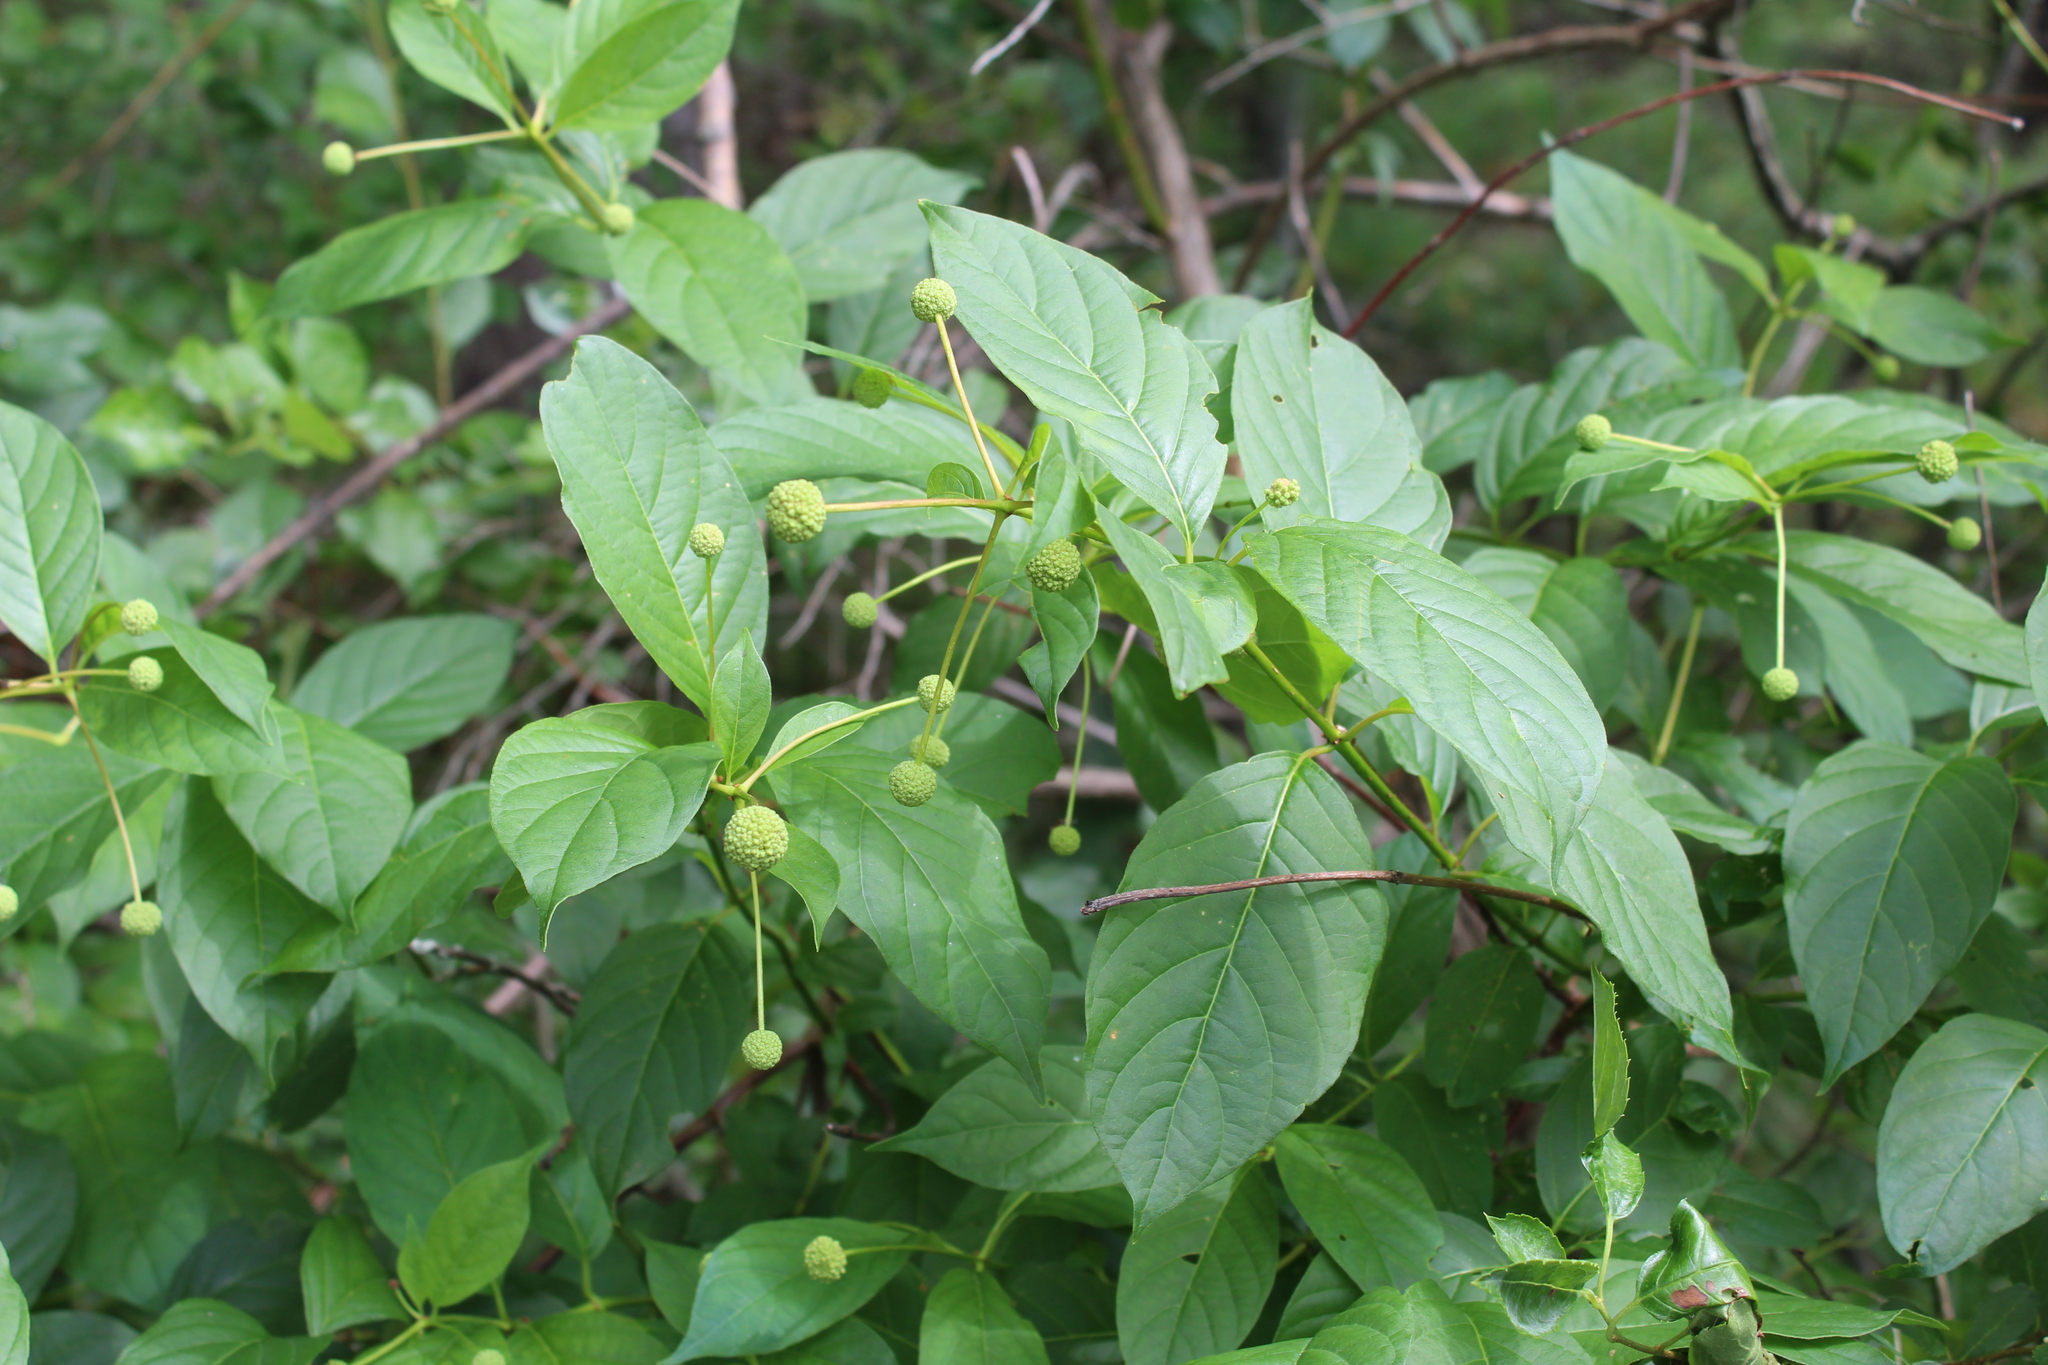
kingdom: Plantae
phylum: Tracheophyta
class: Magnoliopsida
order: Gentianales
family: Rubiaceae
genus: Cephalanthus
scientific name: Cephalanthus occidentalis
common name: Button-willow
